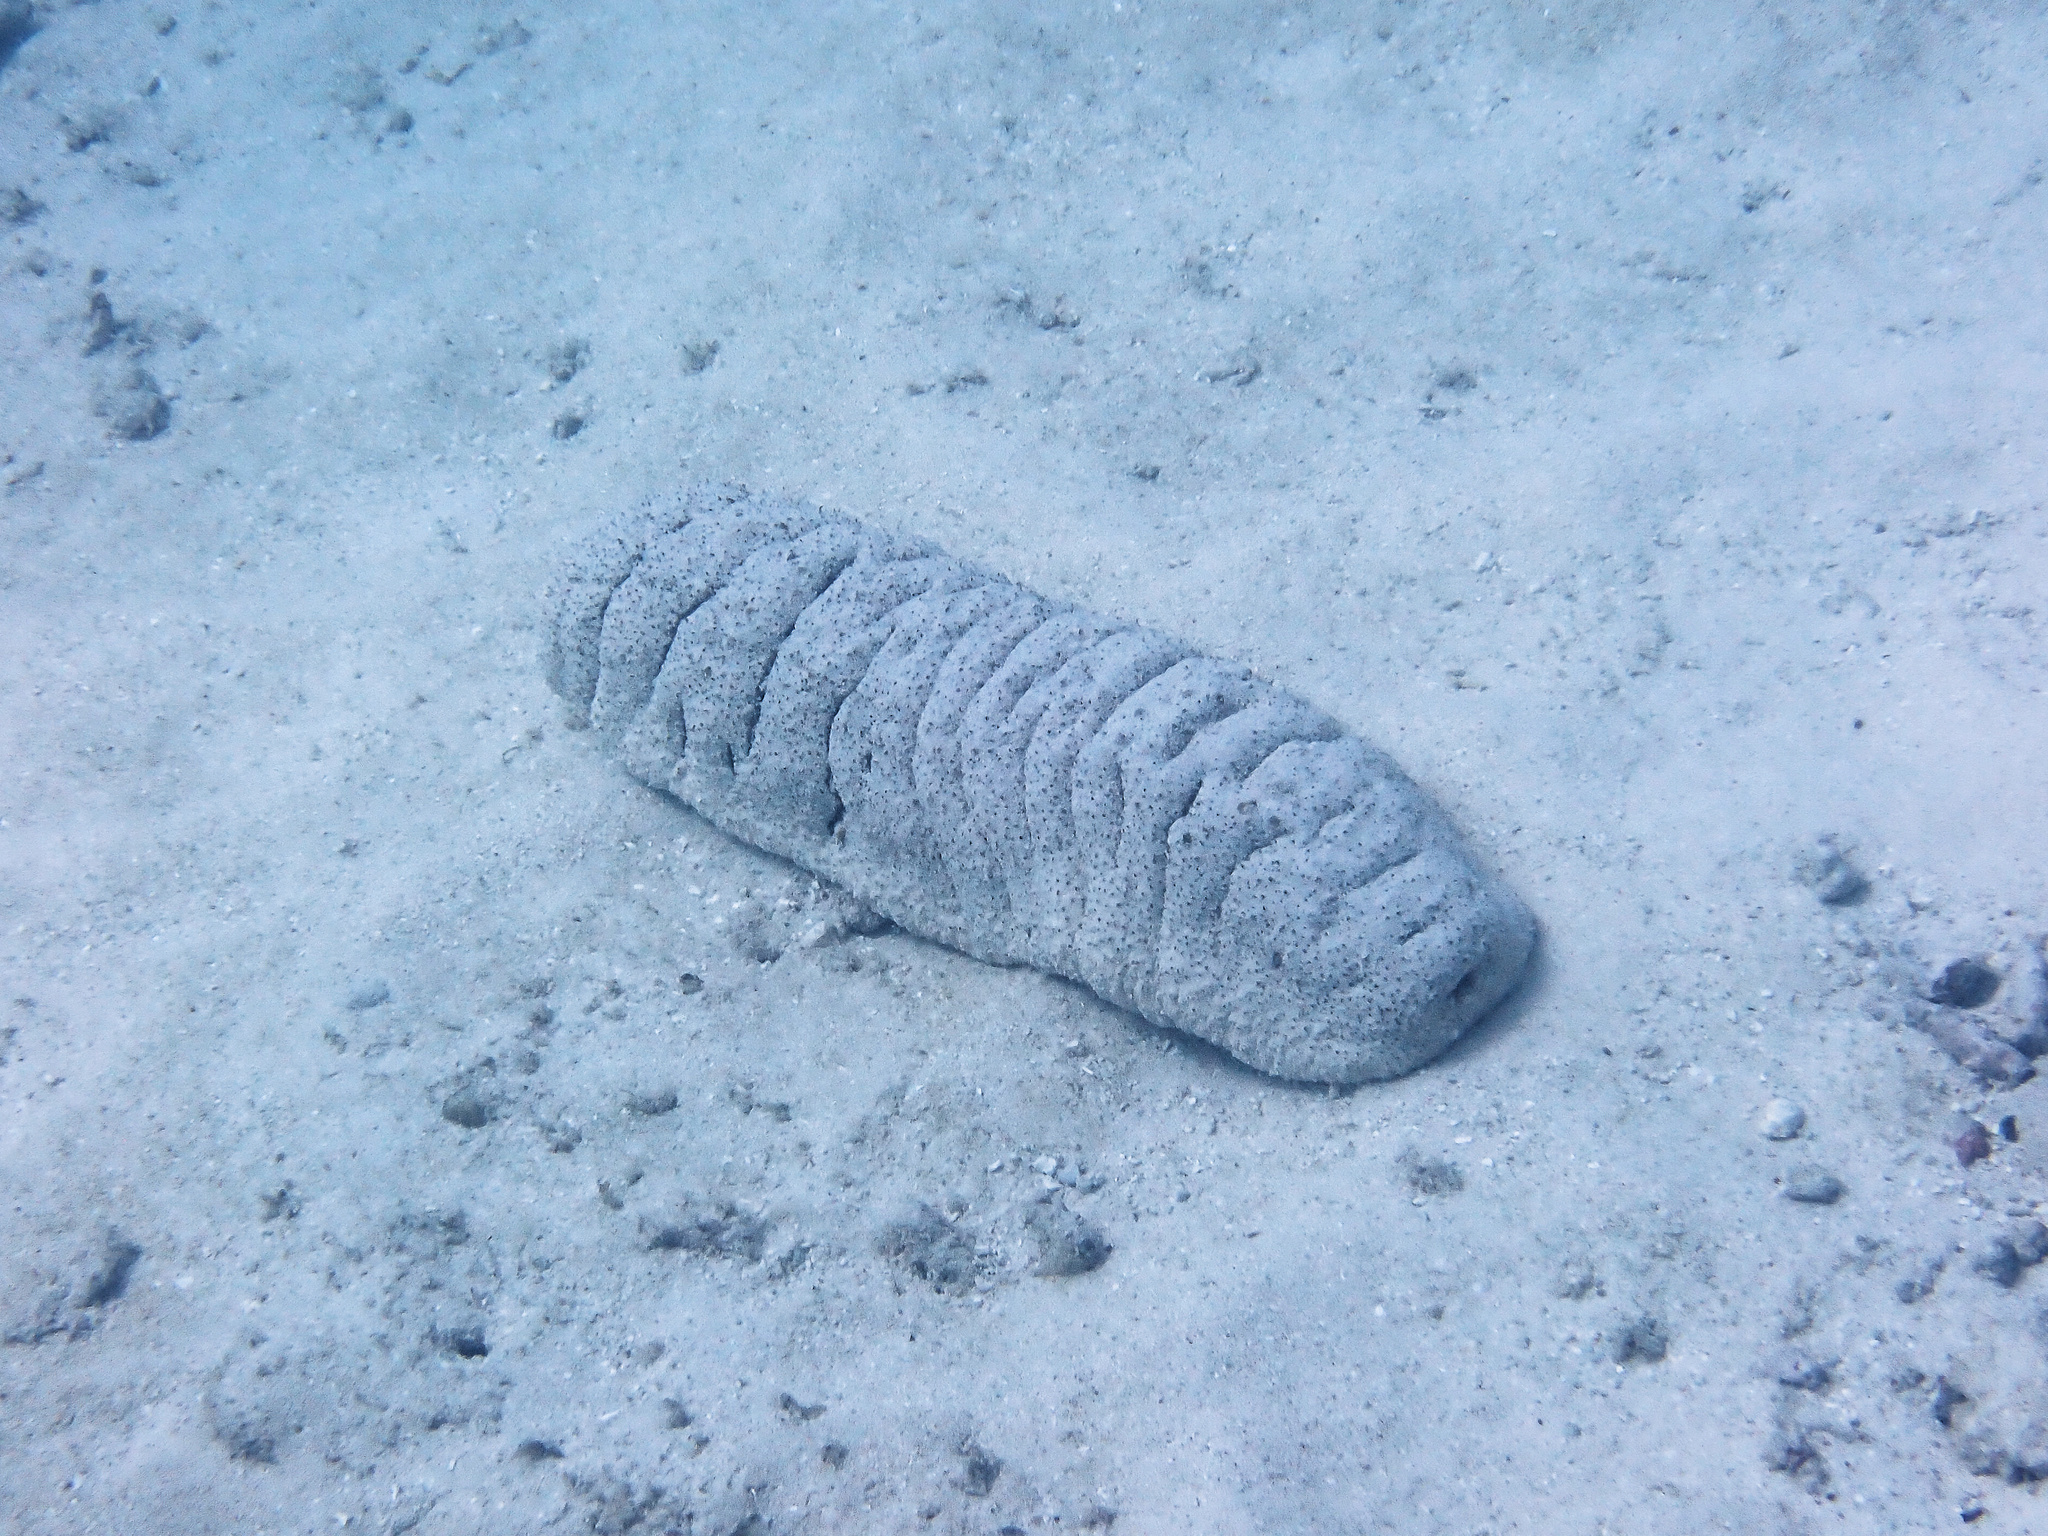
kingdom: Animalia
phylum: Echinodermata
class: Holothuroidea
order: Holothuriida
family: Holothuriidae
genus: Holothuria
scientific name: Holothuria fuscopunctata
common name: Elephant trunkfish
